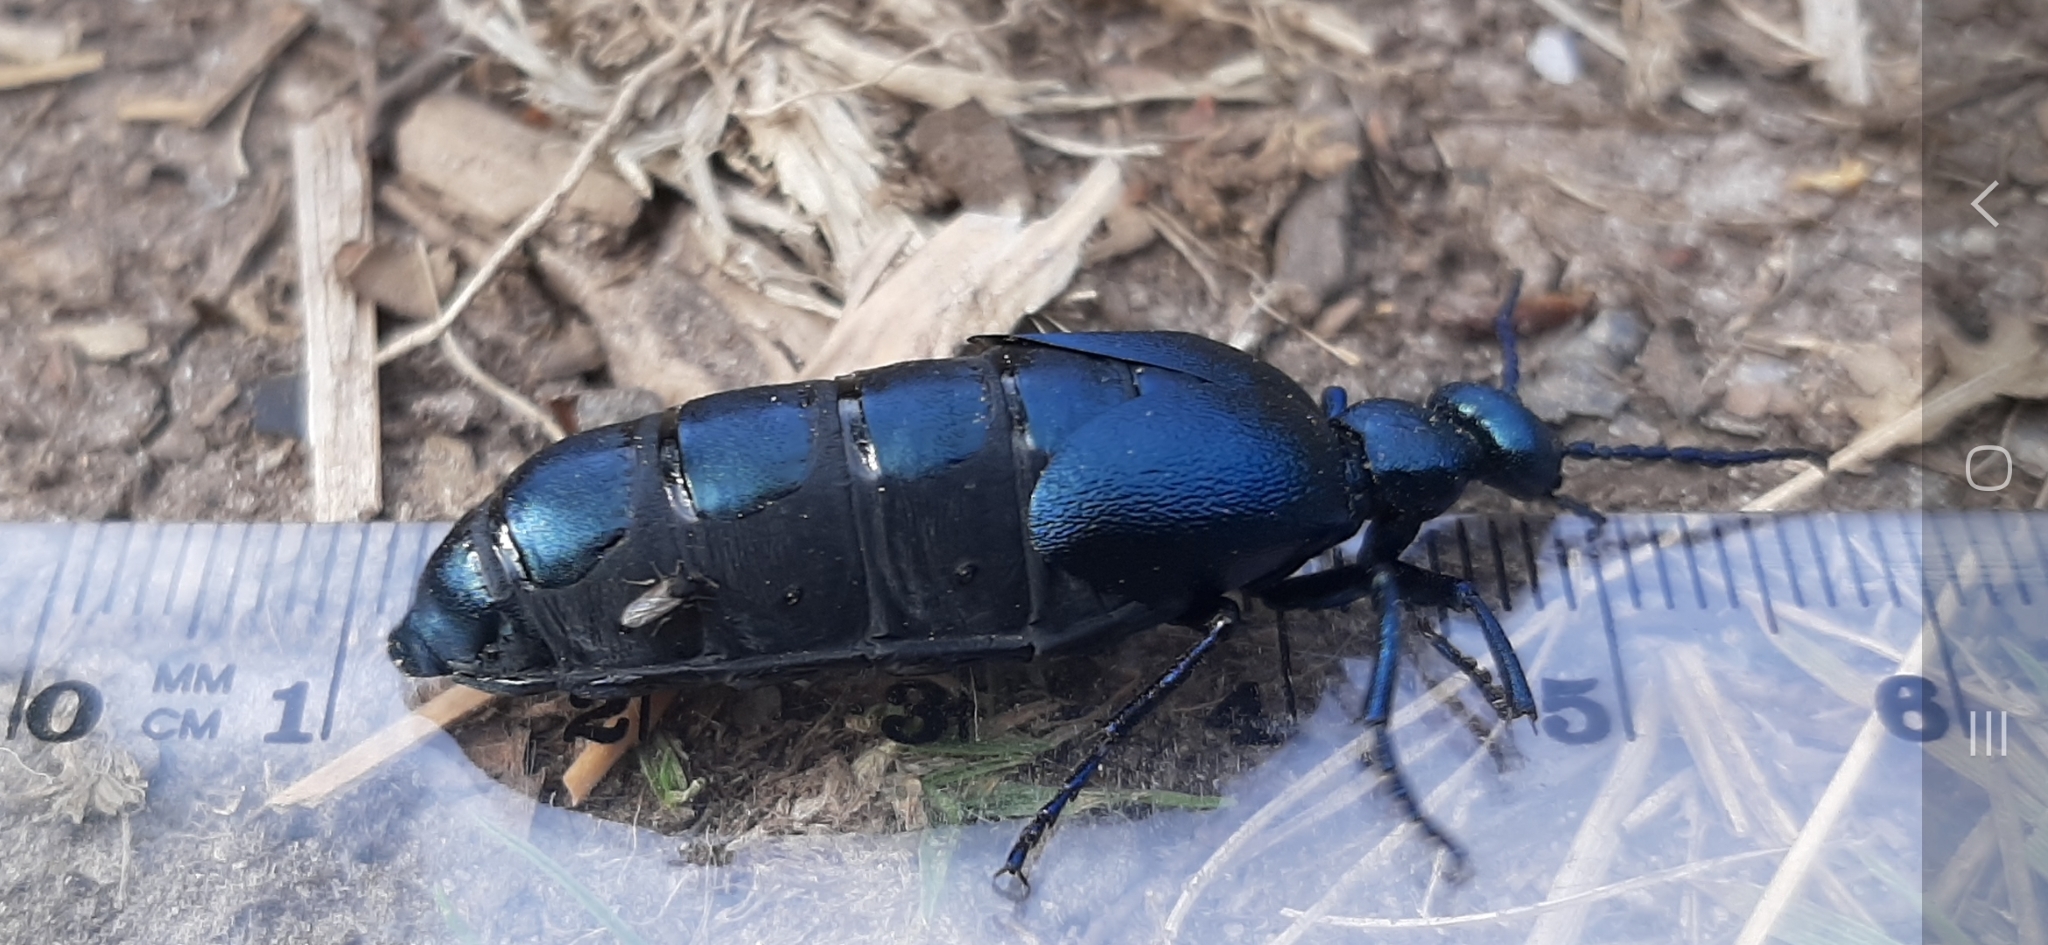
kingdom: Animalia
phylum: Arthropoda
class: Insecta
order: Coleoptera
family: Meloidae
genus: Meloe
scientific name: Meloe violaceus
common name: Violet oil-beetle
